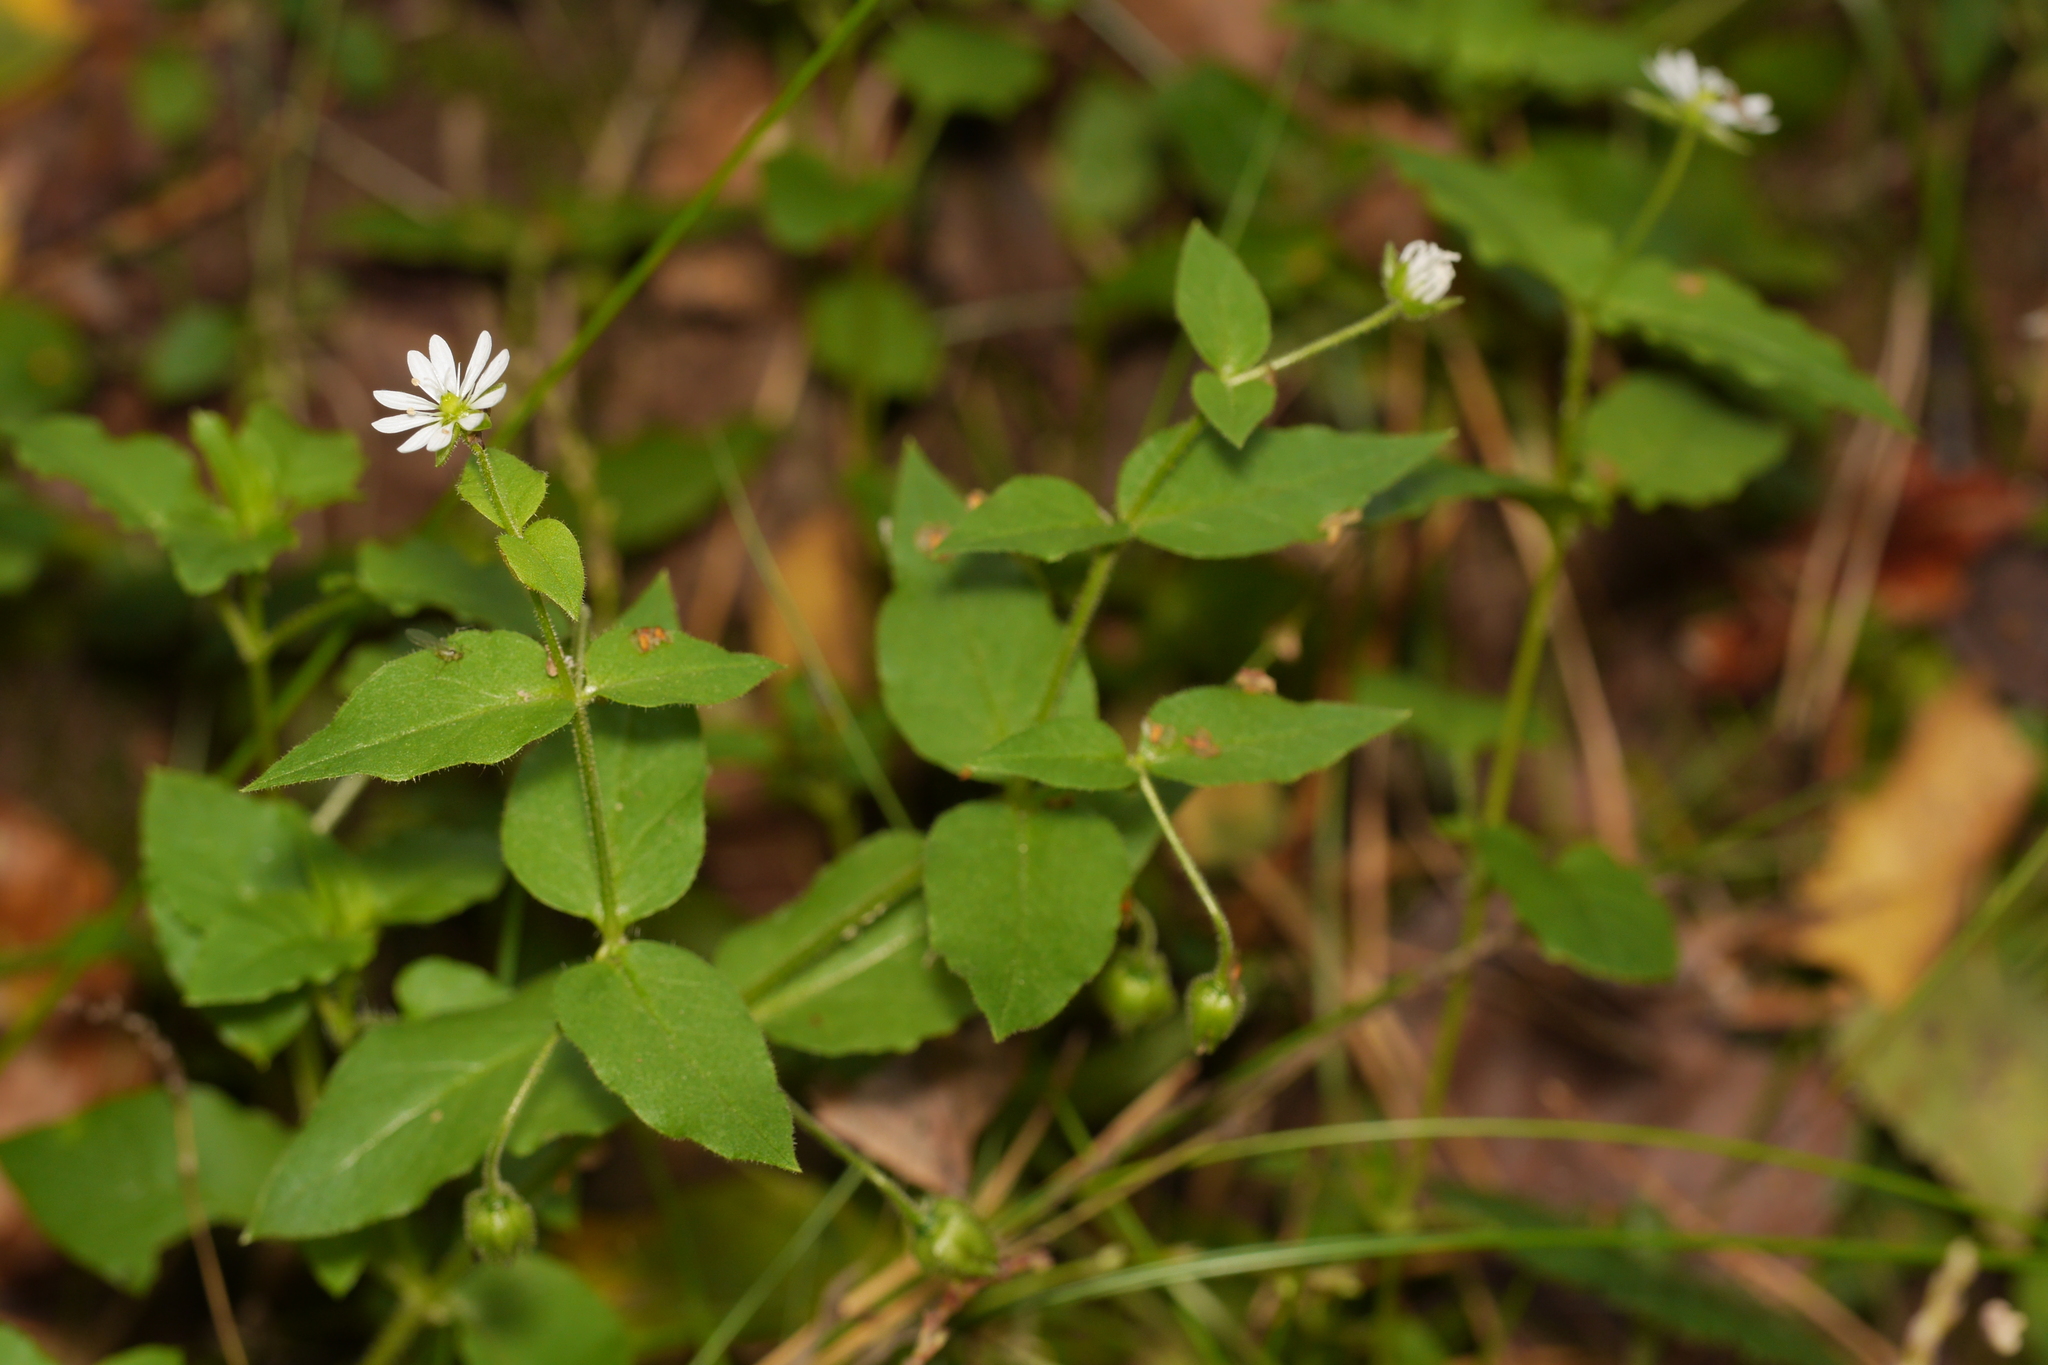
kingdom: Plantae
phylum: Tracheophyta
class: Magnoliopsida
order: Caryophyllales
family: Caryophyllaceae
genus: Stellaria
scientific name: Stellaria aquatica
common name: Water chickweed
